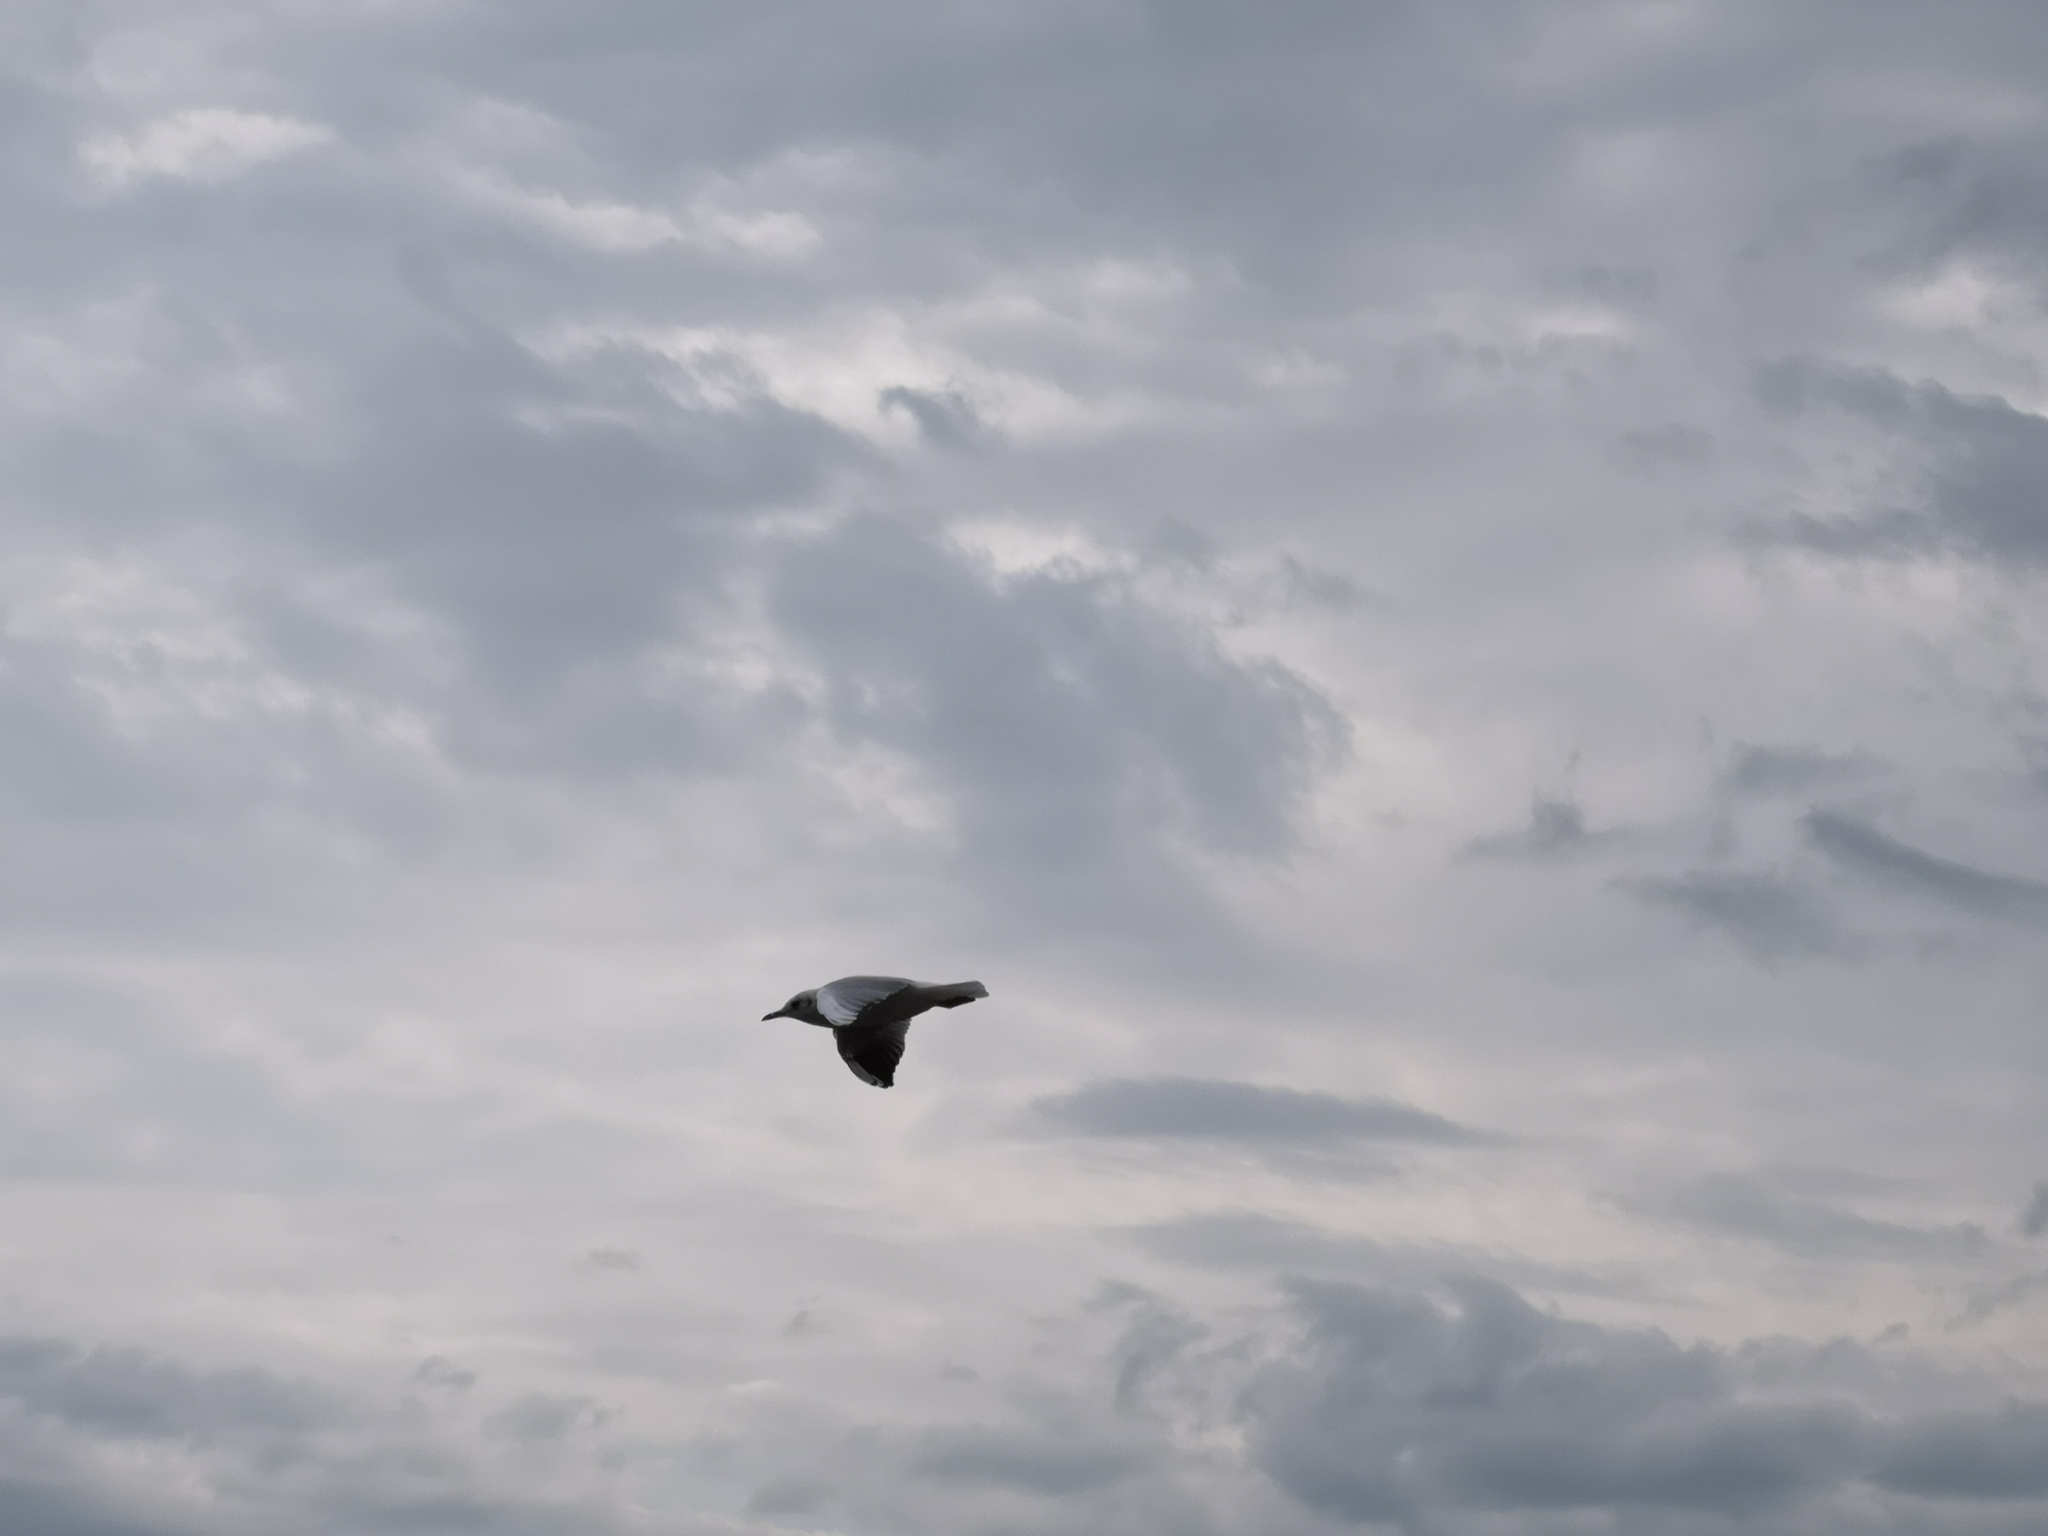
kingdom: Animalia
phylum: Chordata
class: Aves
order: Charadriiformes
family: Laridae
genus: Chroicocephalus
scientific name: Chroicocephalus ridibundus
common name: Black-headed gull
